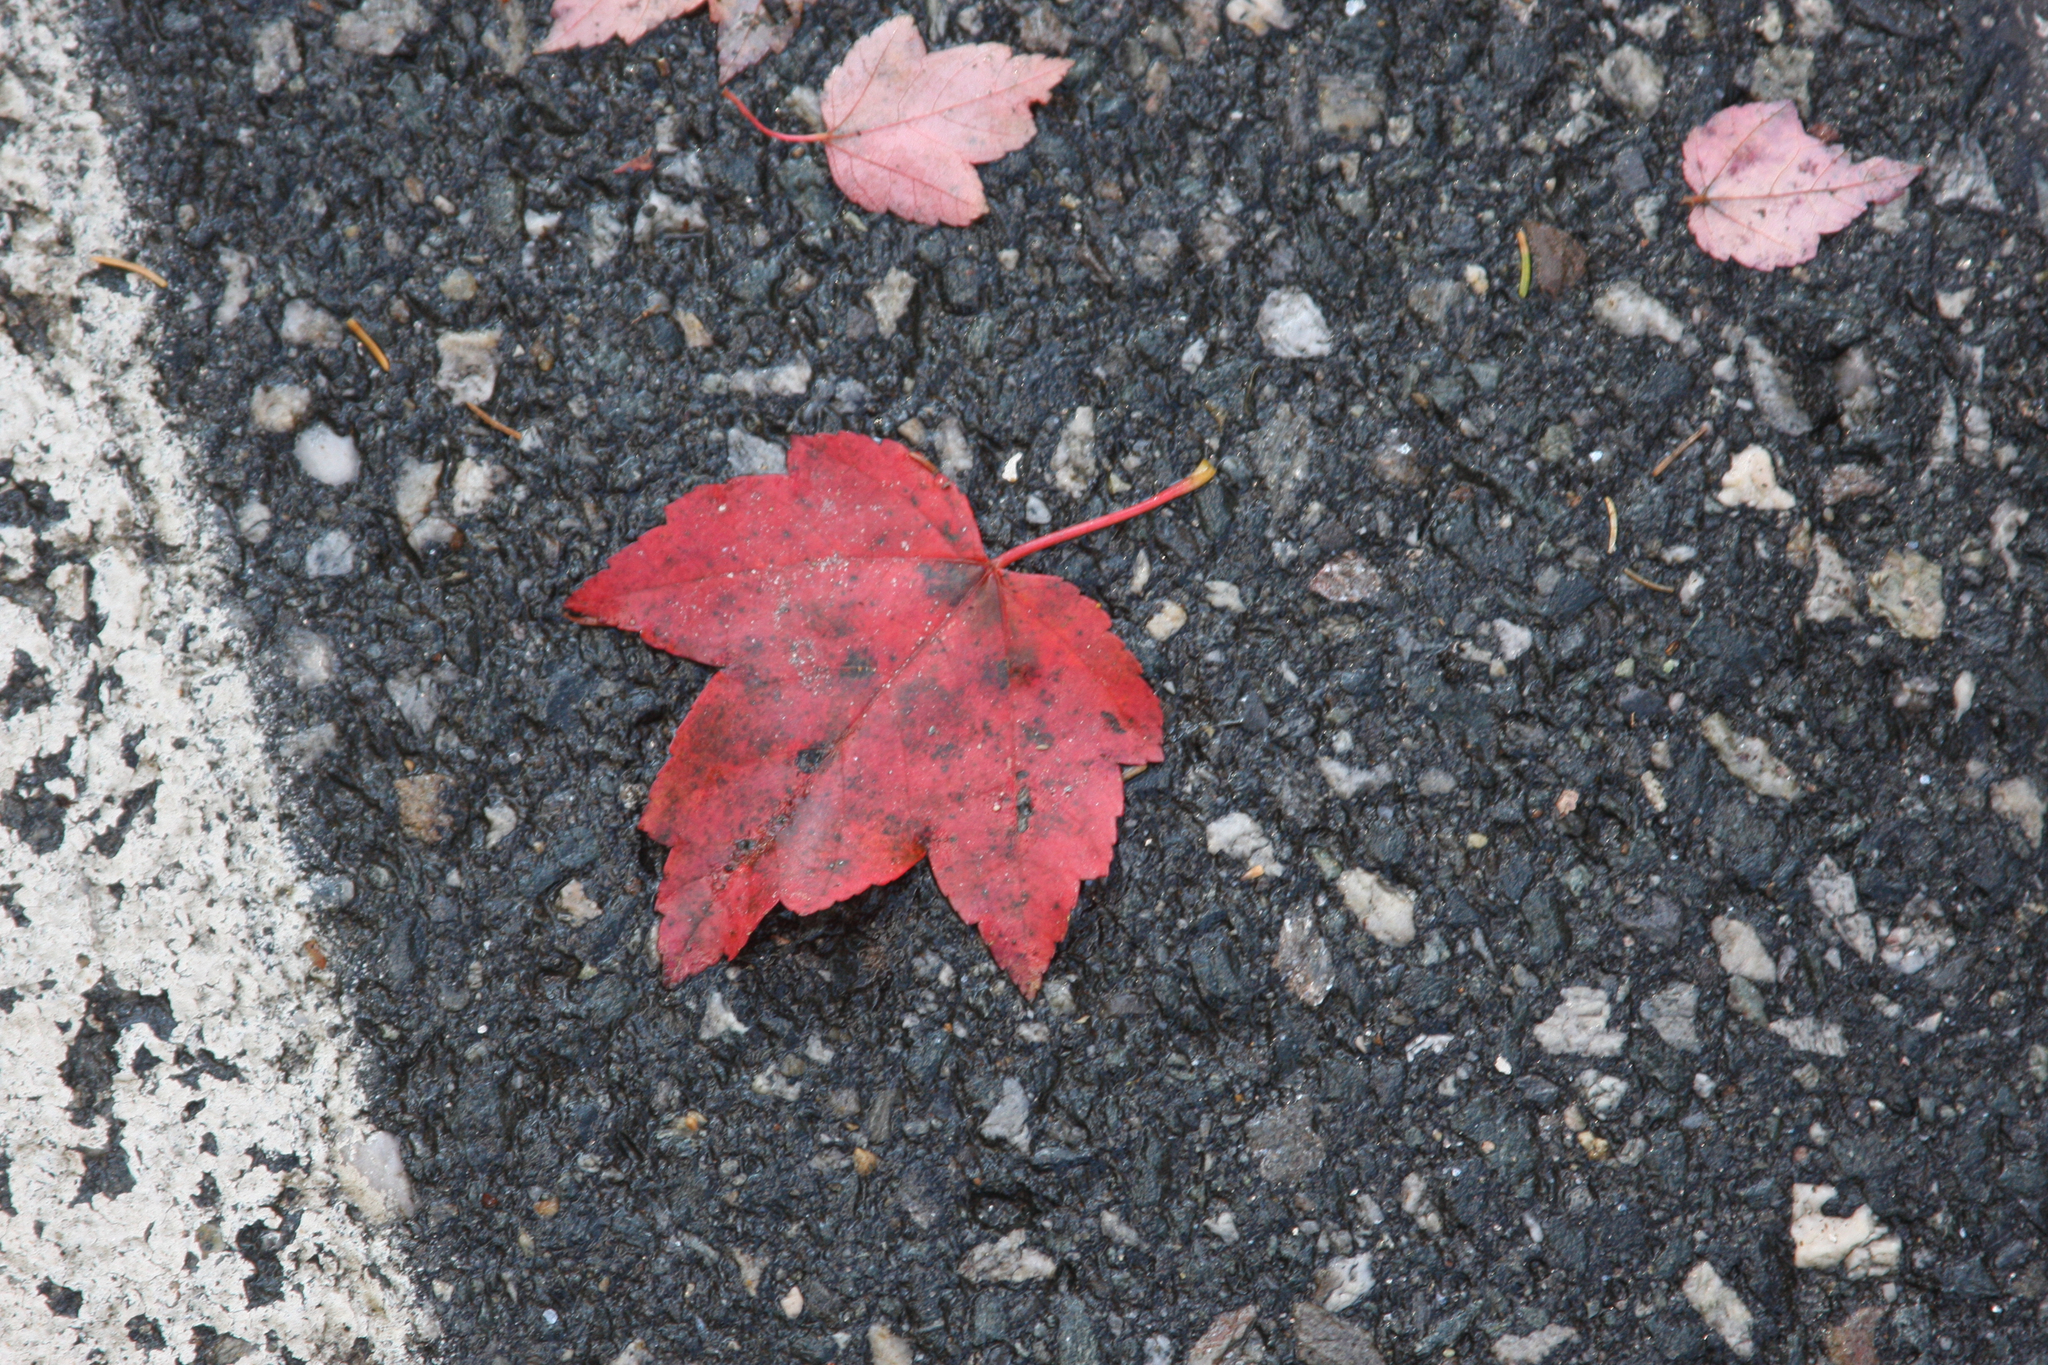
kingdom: Plantae
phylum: Tracheophyta
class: Magnoliopsida
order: Sapindales
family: Sapindaceae
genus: Acer
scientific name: Acer rubrum
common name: Red maple
